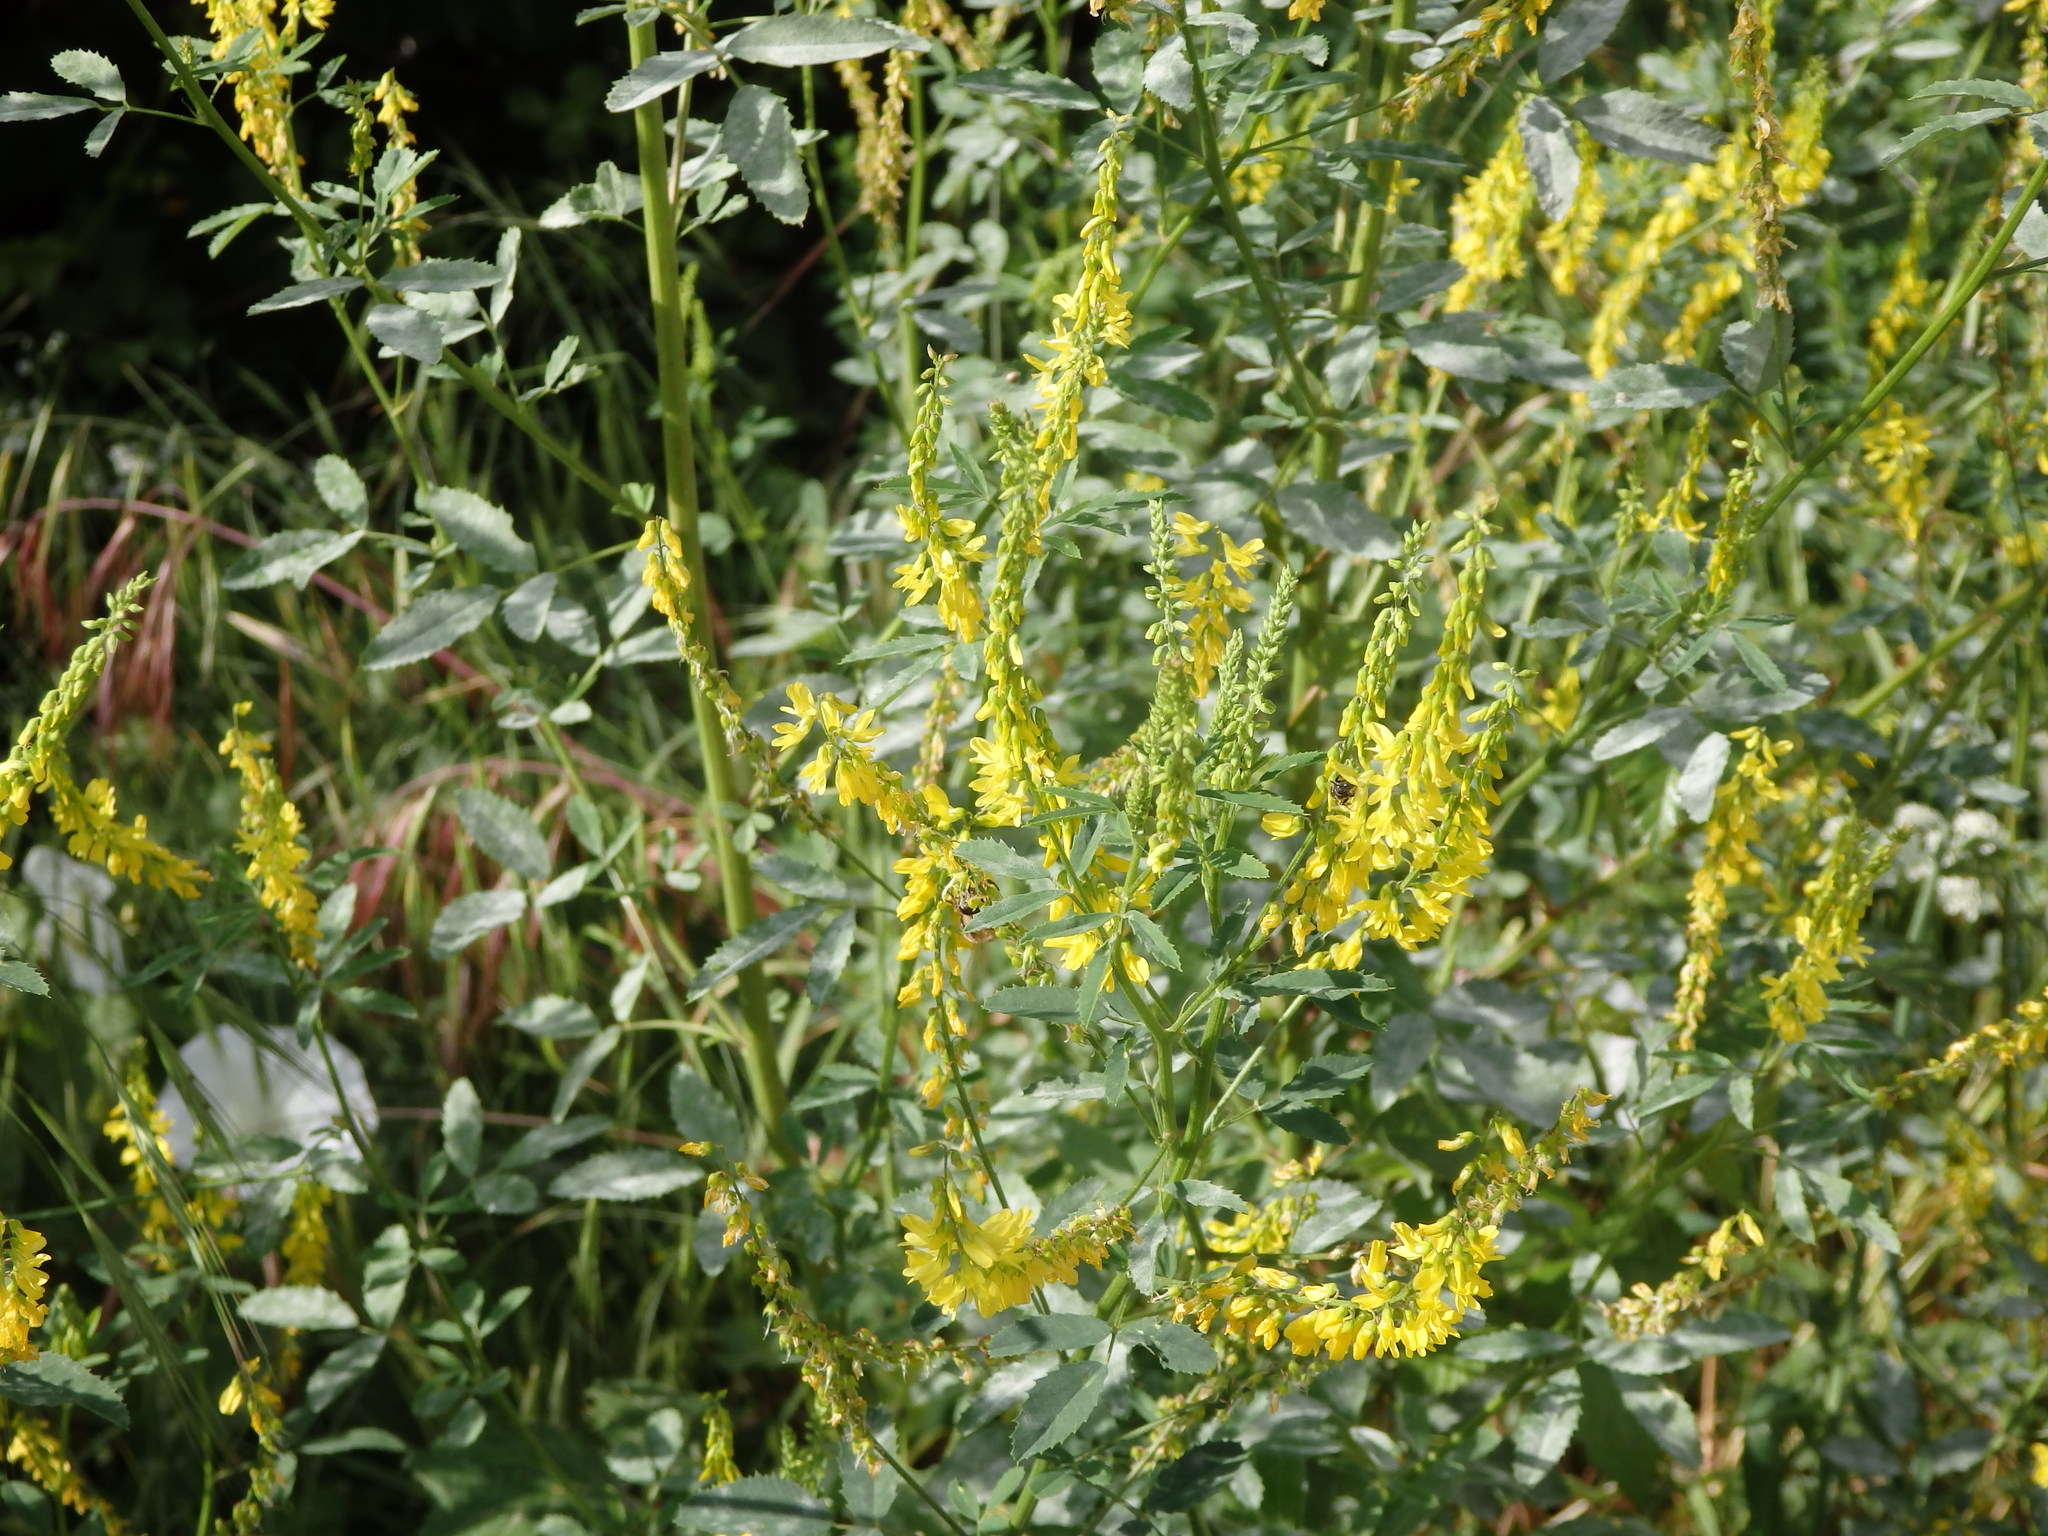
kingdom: Plantae
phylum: Tracheophyta
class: Magnoliopsida
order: Fabales
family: Fabaceae
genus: Melilotus
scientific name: Melilotus officinalis
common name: Sweetclover
